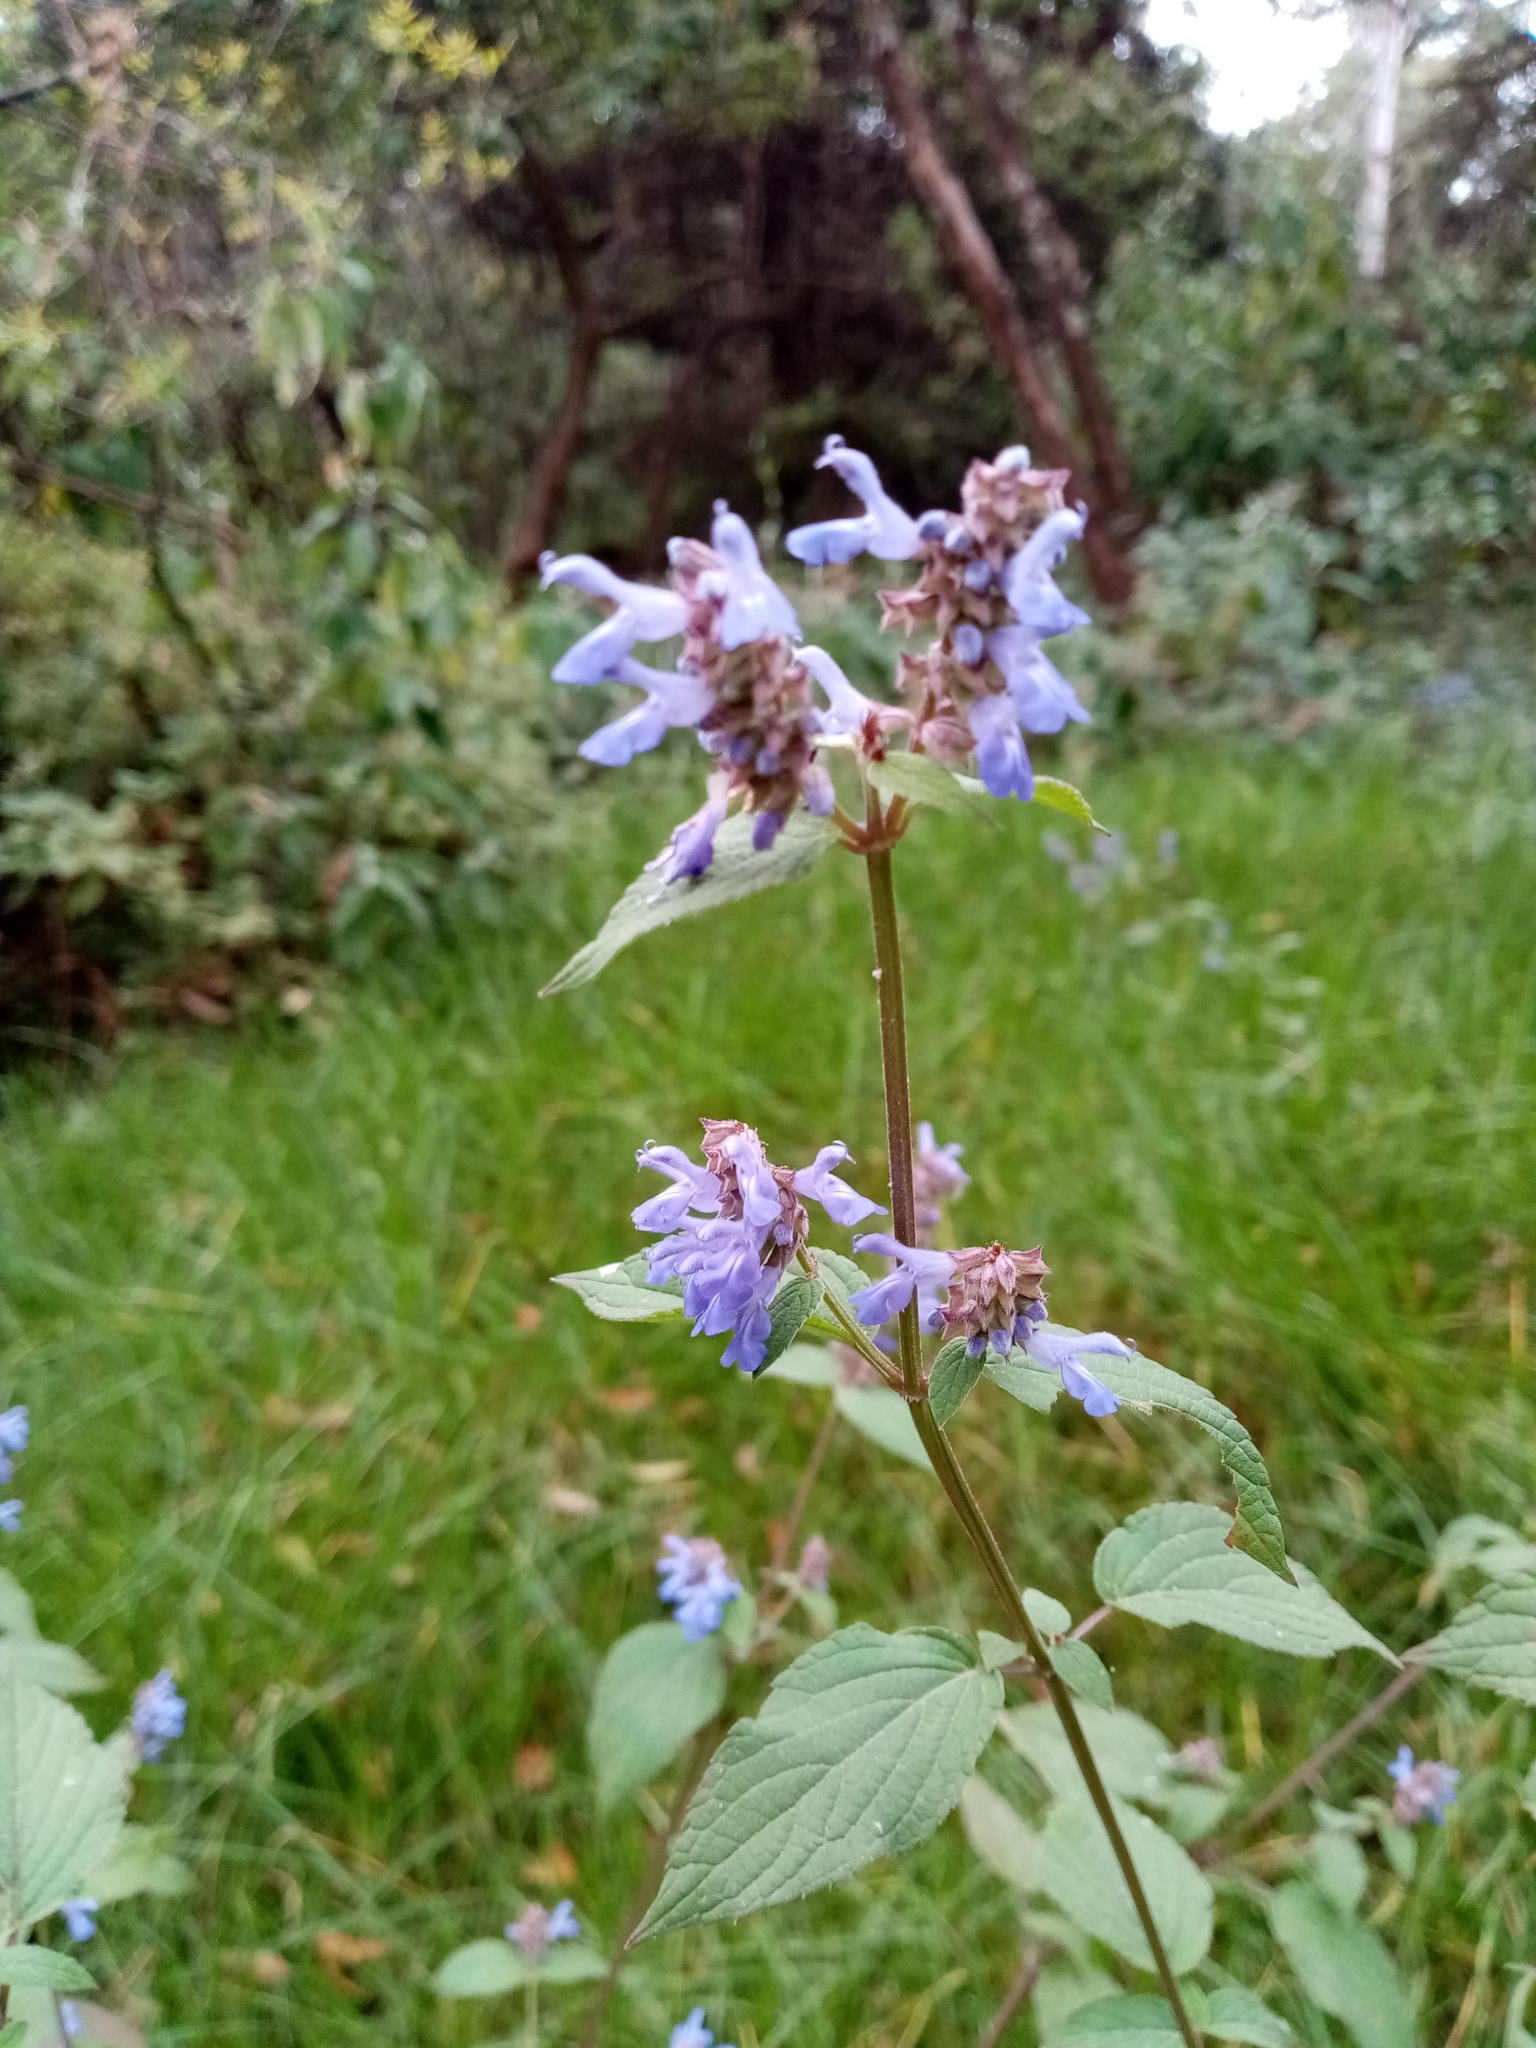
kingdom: Plantae
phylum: Tracheophyta
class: Magnoliopsida
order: Lamiales
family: Lamiaceae
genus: Salvia
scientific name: Salvia polystachia
